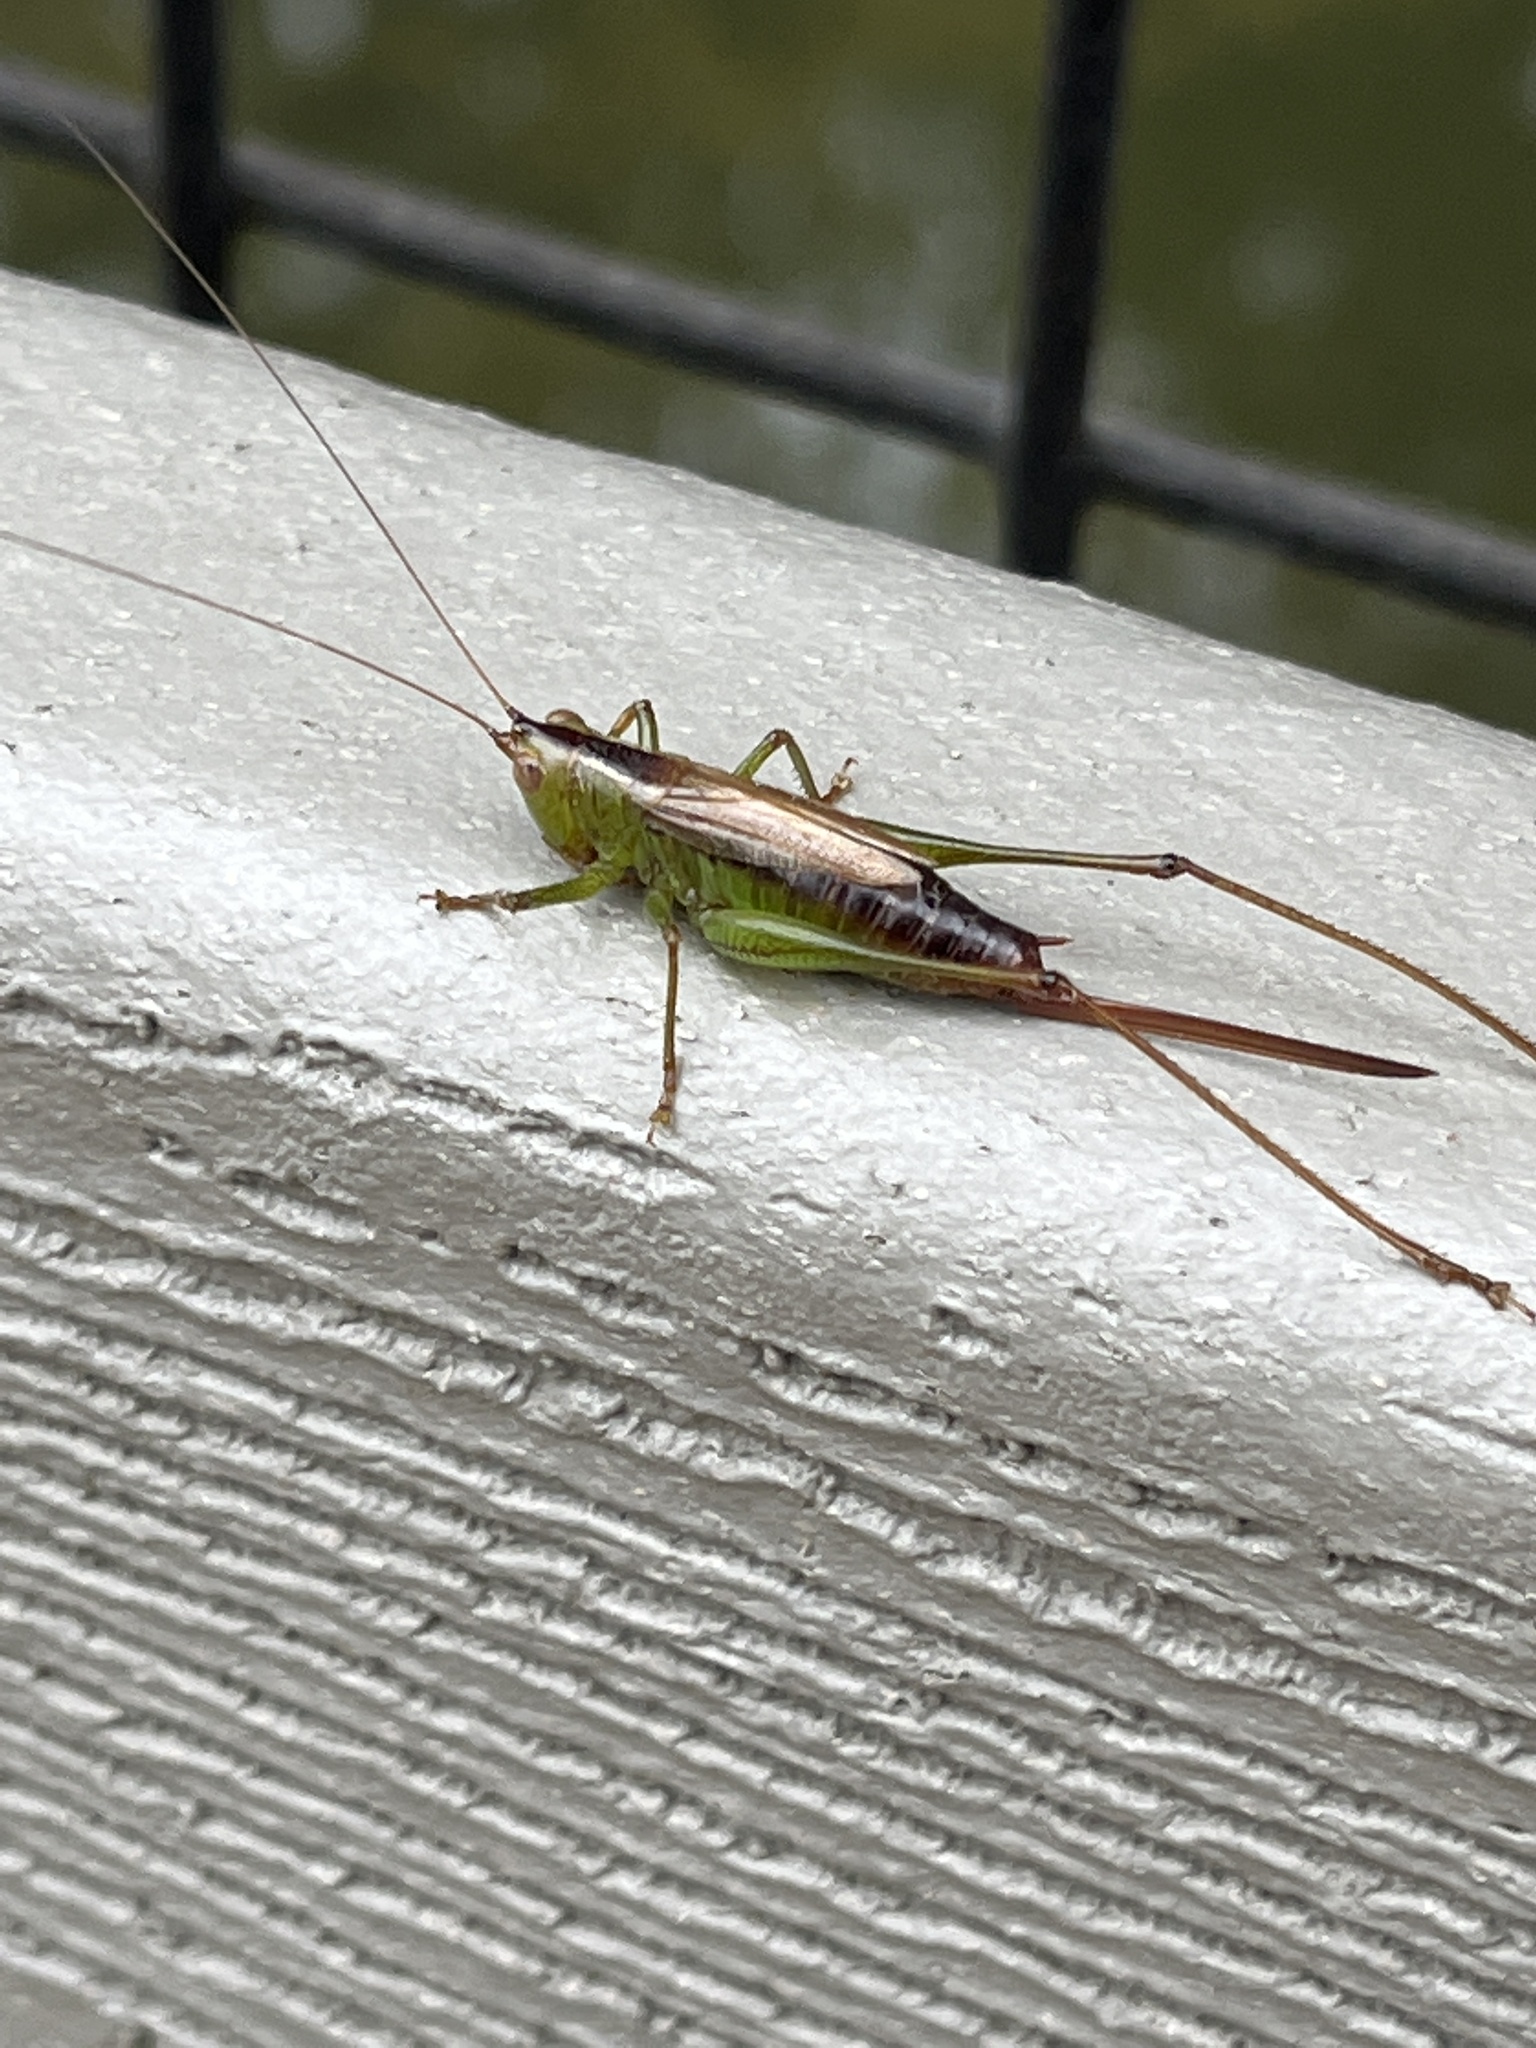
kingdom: Animalia
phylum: Arthropoda
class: Insecta
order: Orthoptera
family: Tettigoniidae
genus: Conocephalus
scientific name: Conocephalus brevipennis
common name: Short-winged meadow katydid
